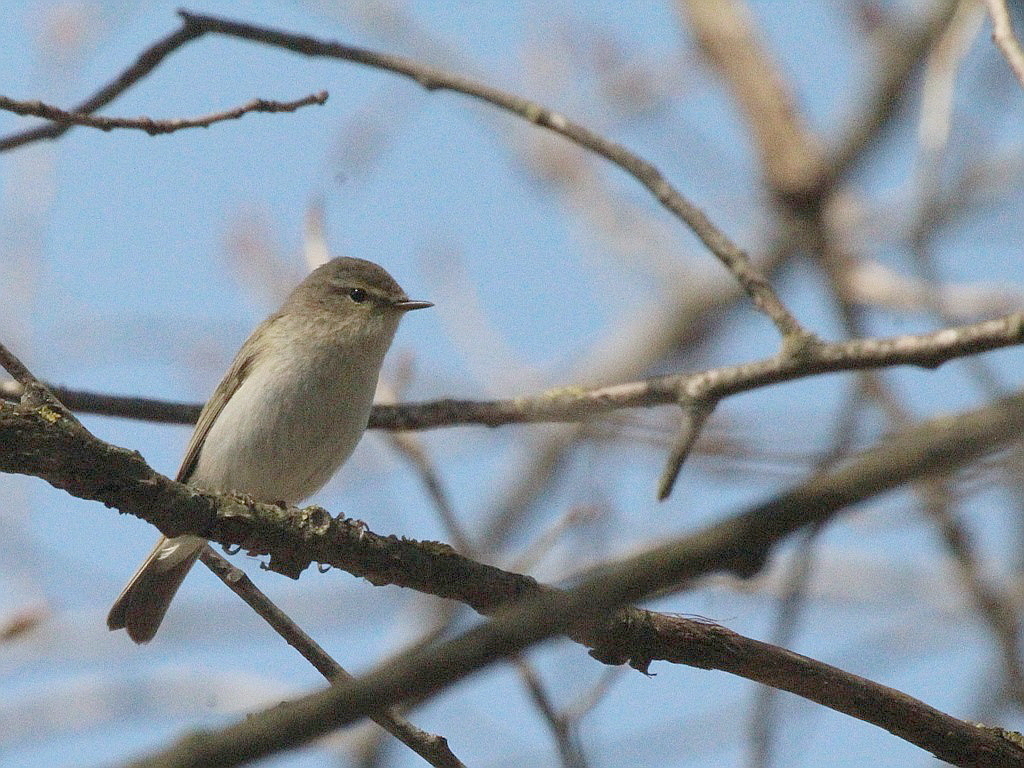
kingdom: Animalia
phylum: Chordata
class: Aves
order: Passeriformes
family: Phylloscopidae
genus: Phylloscopus
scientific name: Phylloscopus collybita
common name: Common chiffchaff
